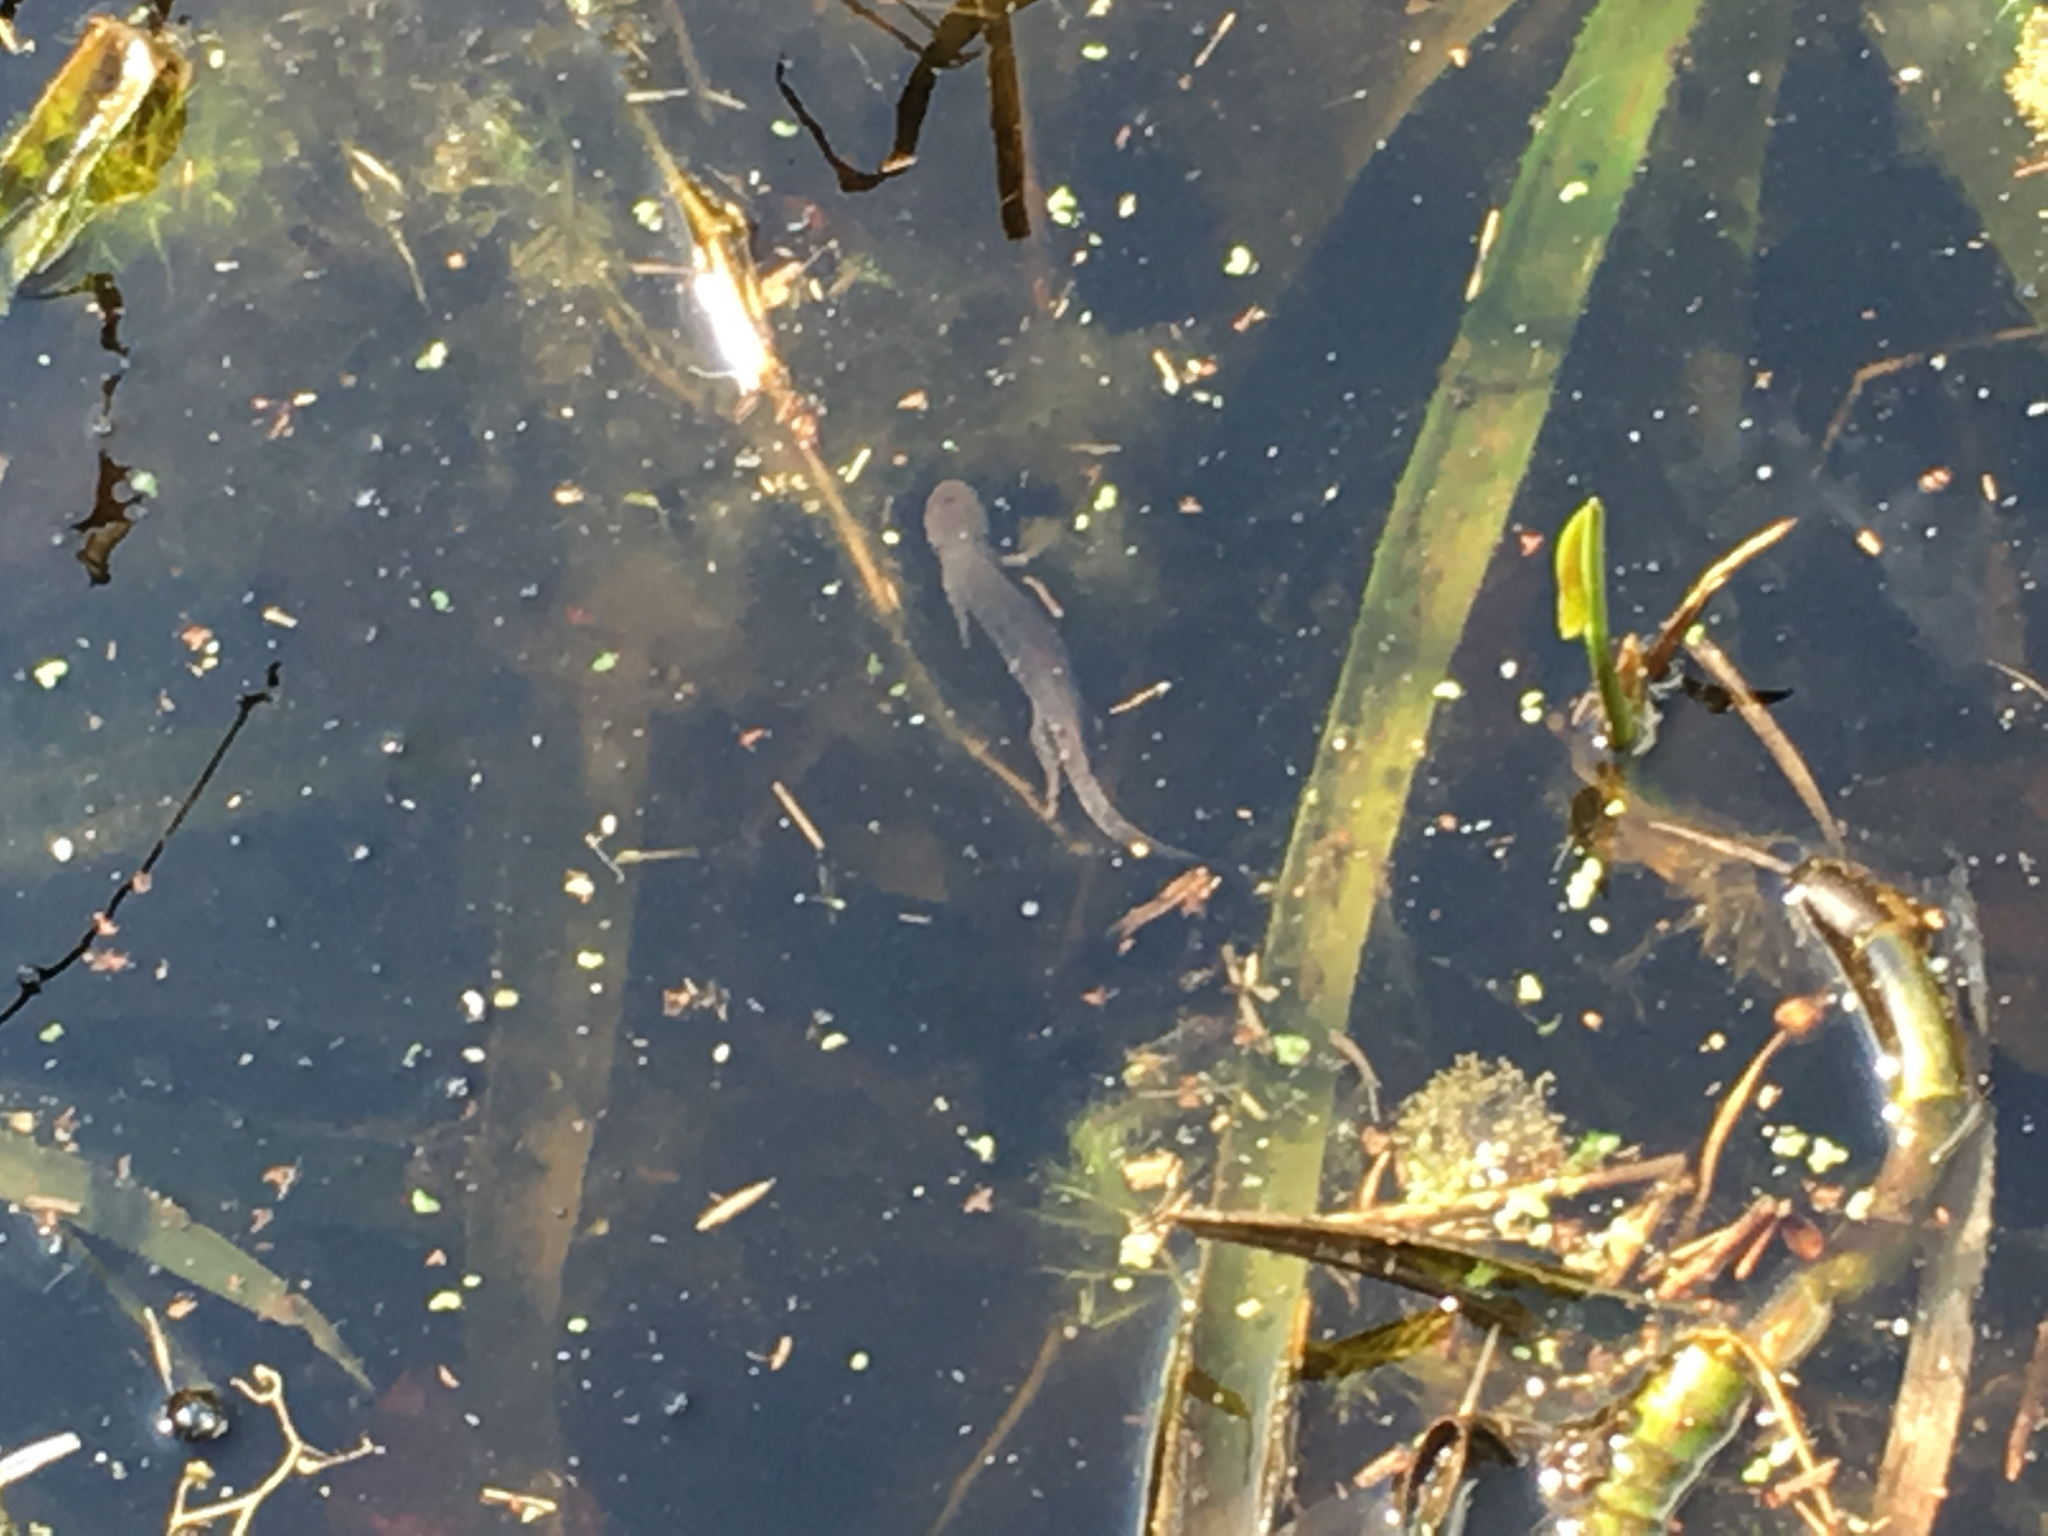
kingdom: Animalia
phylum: Chordata
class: Amphibia
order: Caudata
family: Salamandridae
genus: Triturus
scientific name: Triturus cristatus
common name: Crested newt
